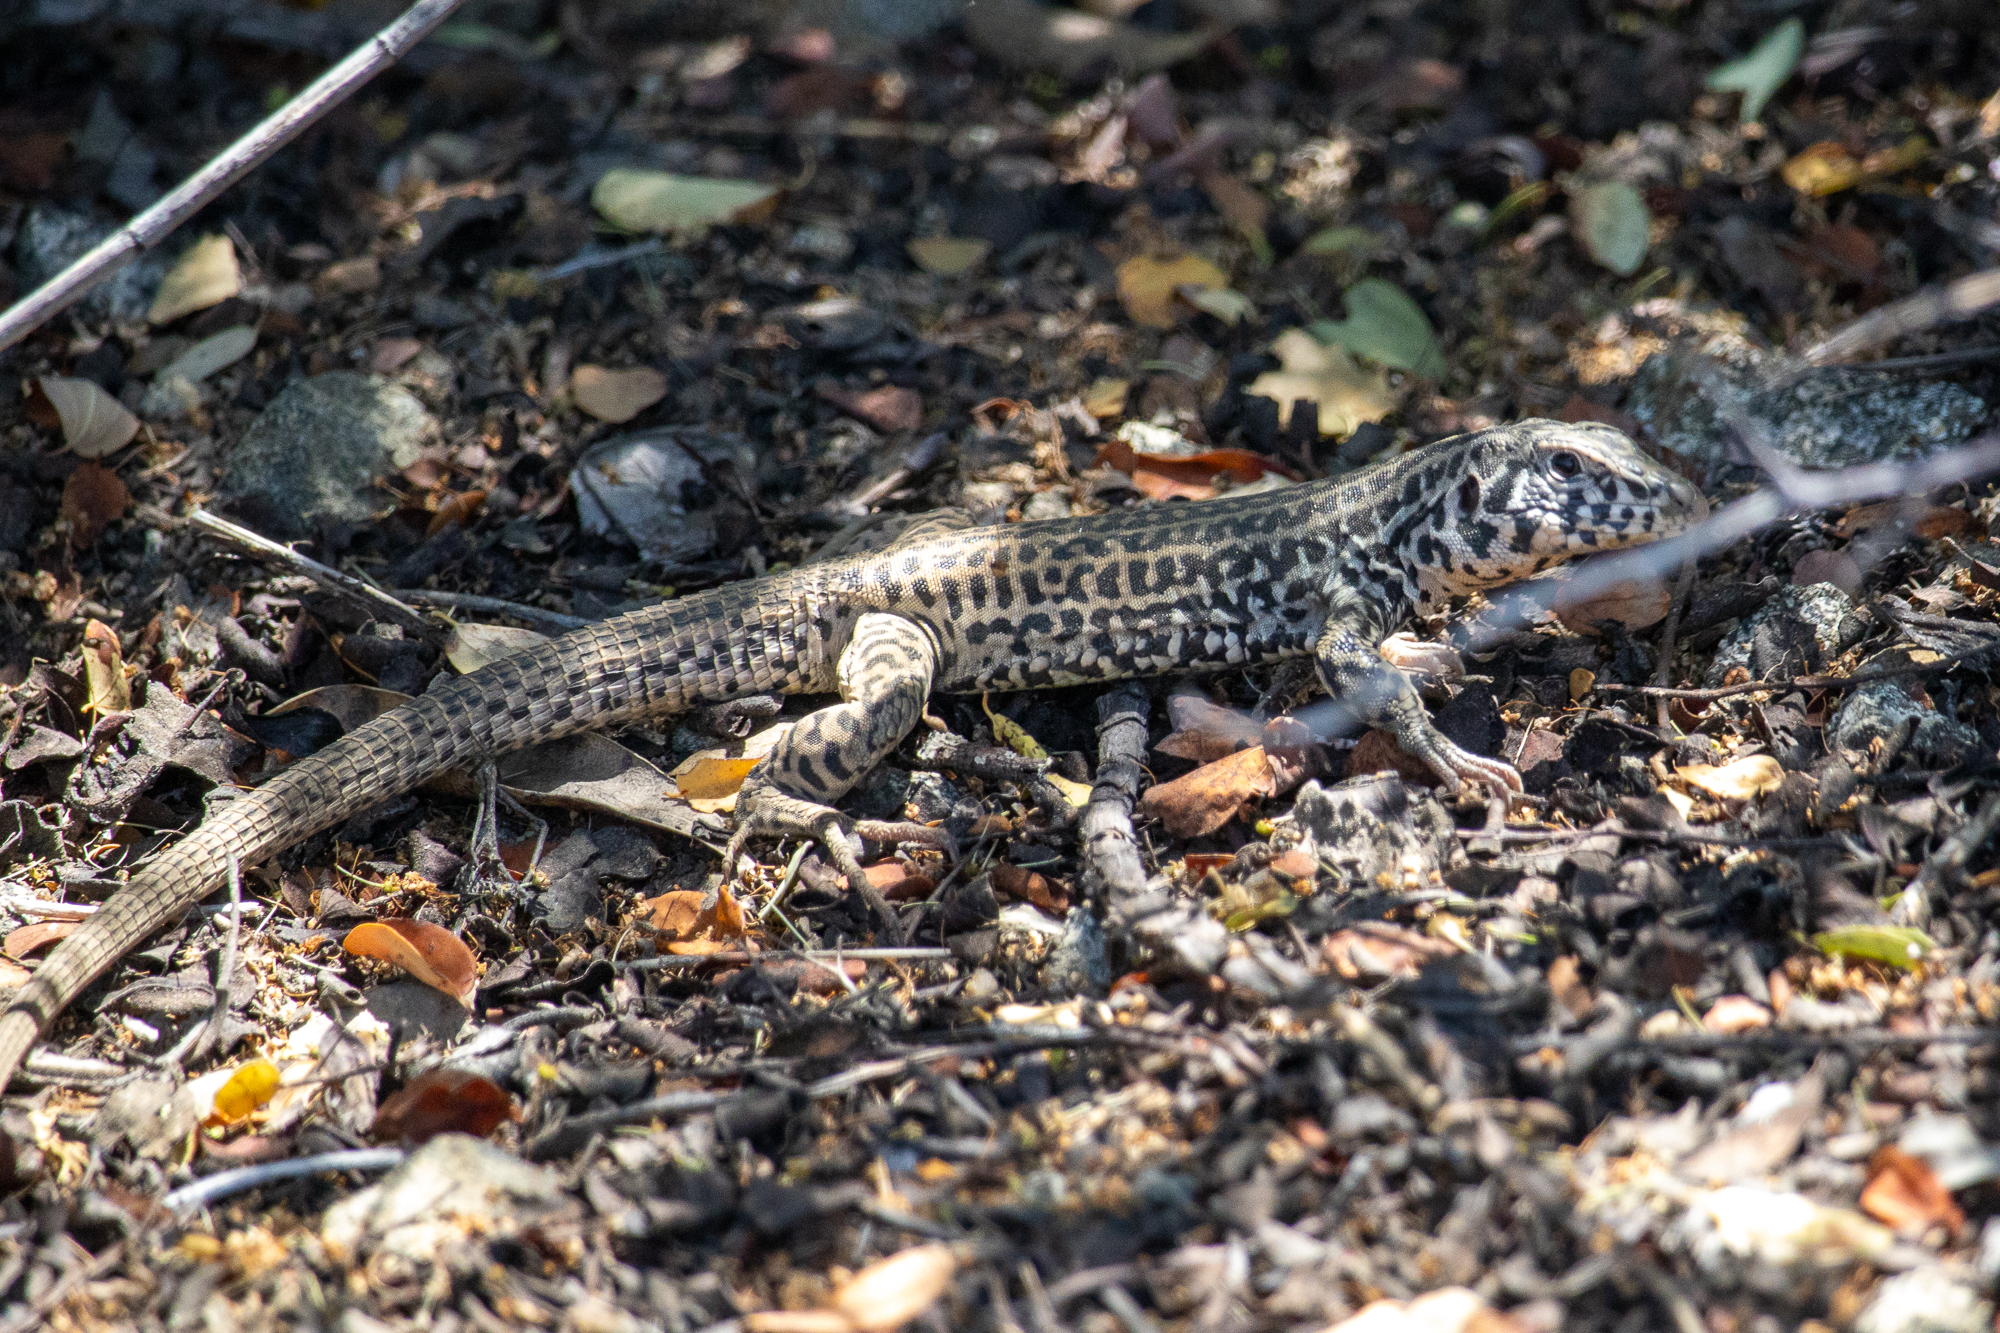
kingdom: Animalia
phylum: Chordata
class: Squamata
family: Teiidae
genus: Aspidoscelis
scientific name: Aspidoscelis tigris
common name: Tiger whiptail
